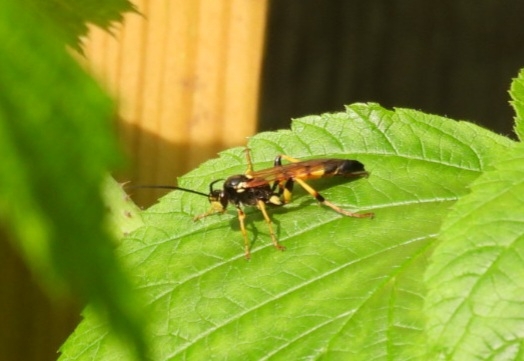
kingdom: Animalia
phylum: Arthropoda
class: Insecta
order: Hymenoptera
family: Ichneumonidae
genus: Ichneumon
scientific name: Ichneumon xanthorius
